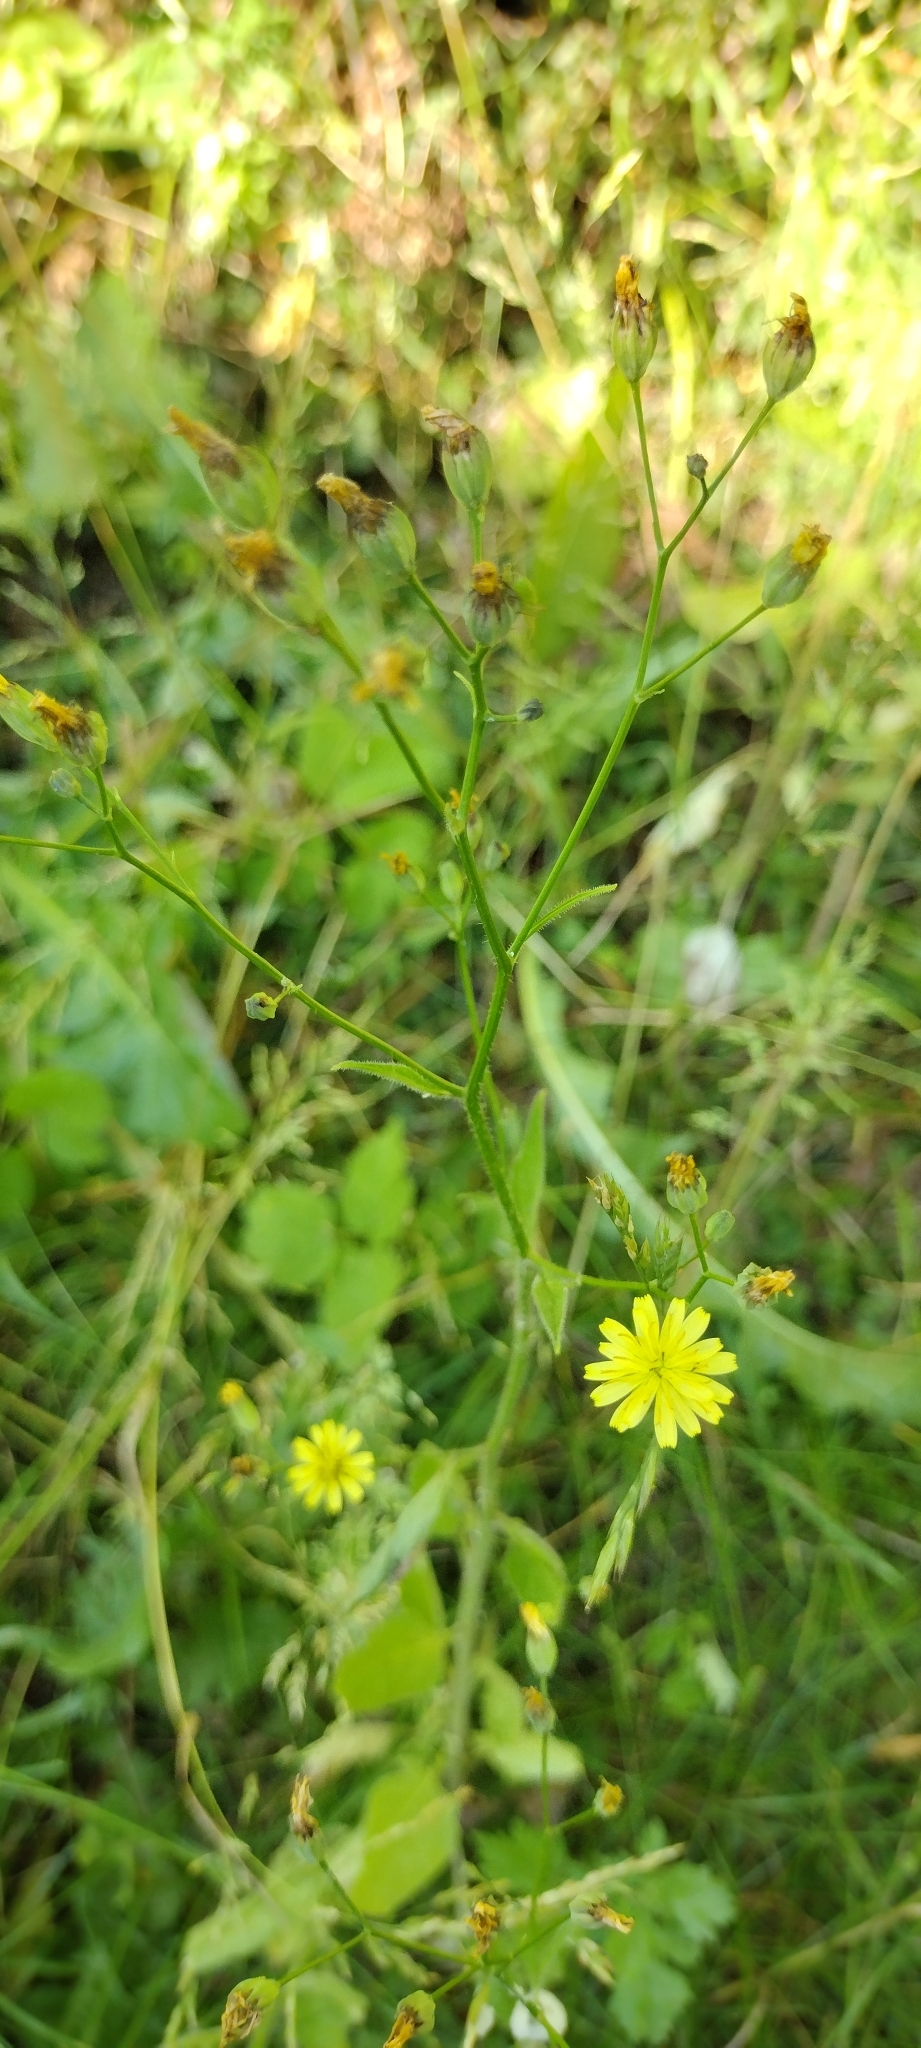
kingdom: Plantae
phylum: Tracheophyta
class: Magnoliopsida
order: Asterales
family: Asteraceae
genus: Lapsana
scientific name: Lapsana communis
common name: Nipplewort
